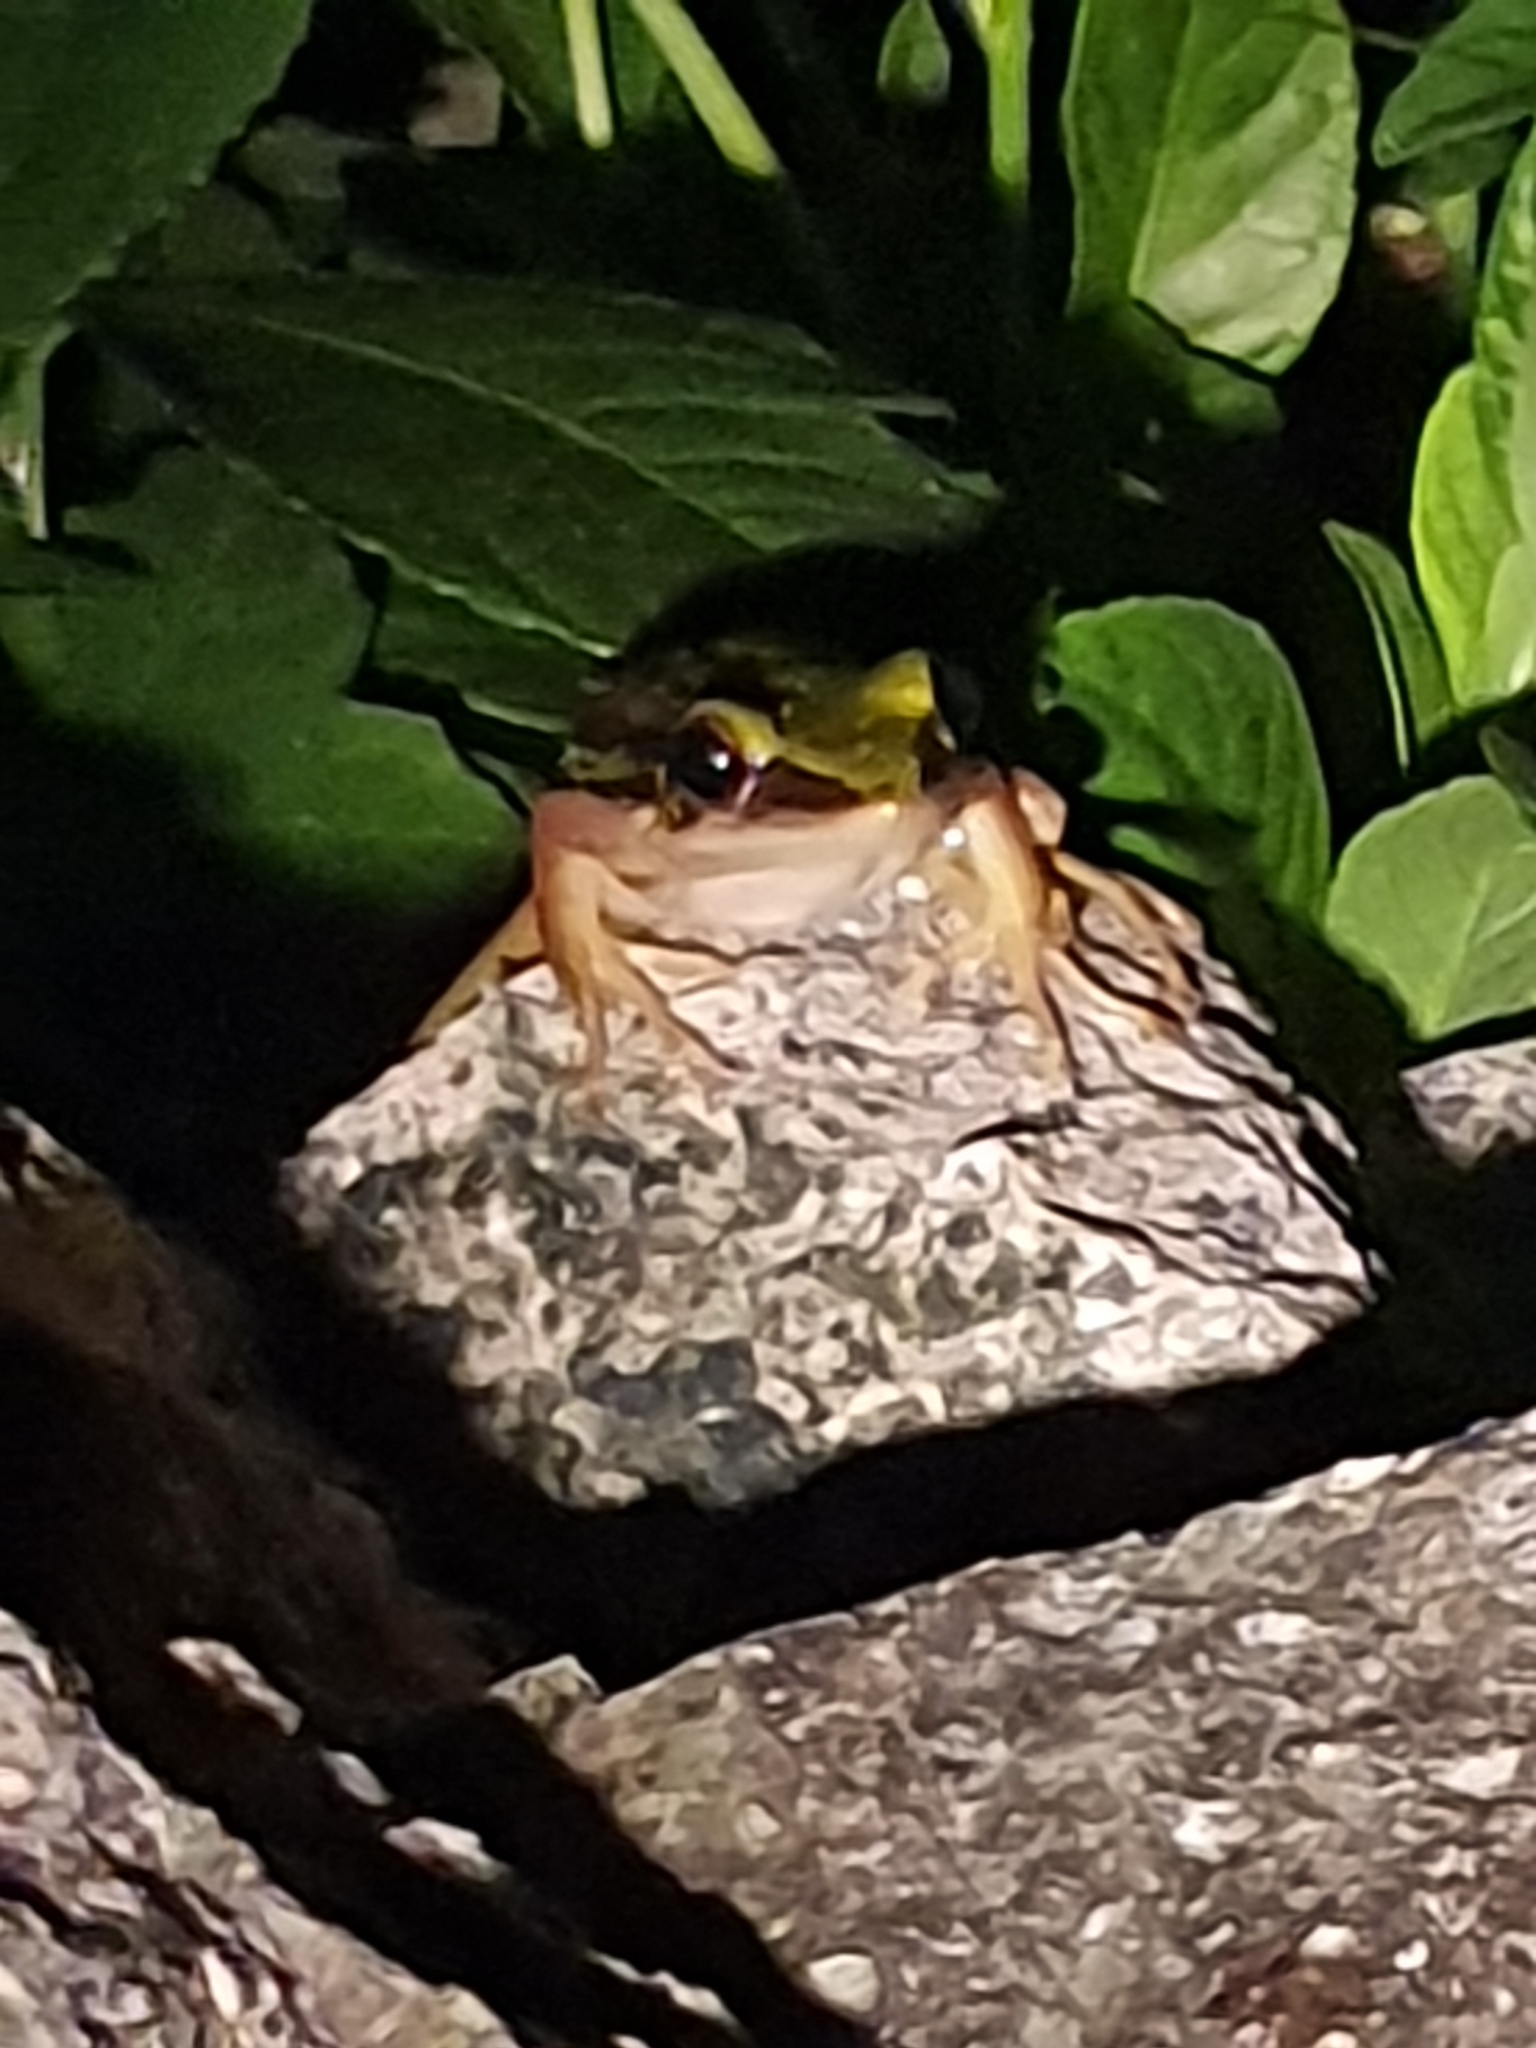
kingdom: Animalia
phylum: Chordata
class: Amphibia
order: Anura
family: Ranidae
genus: Hylarana
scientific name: Hylarana erythraea
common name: Common green frog/green paddy frog/leaf frog
